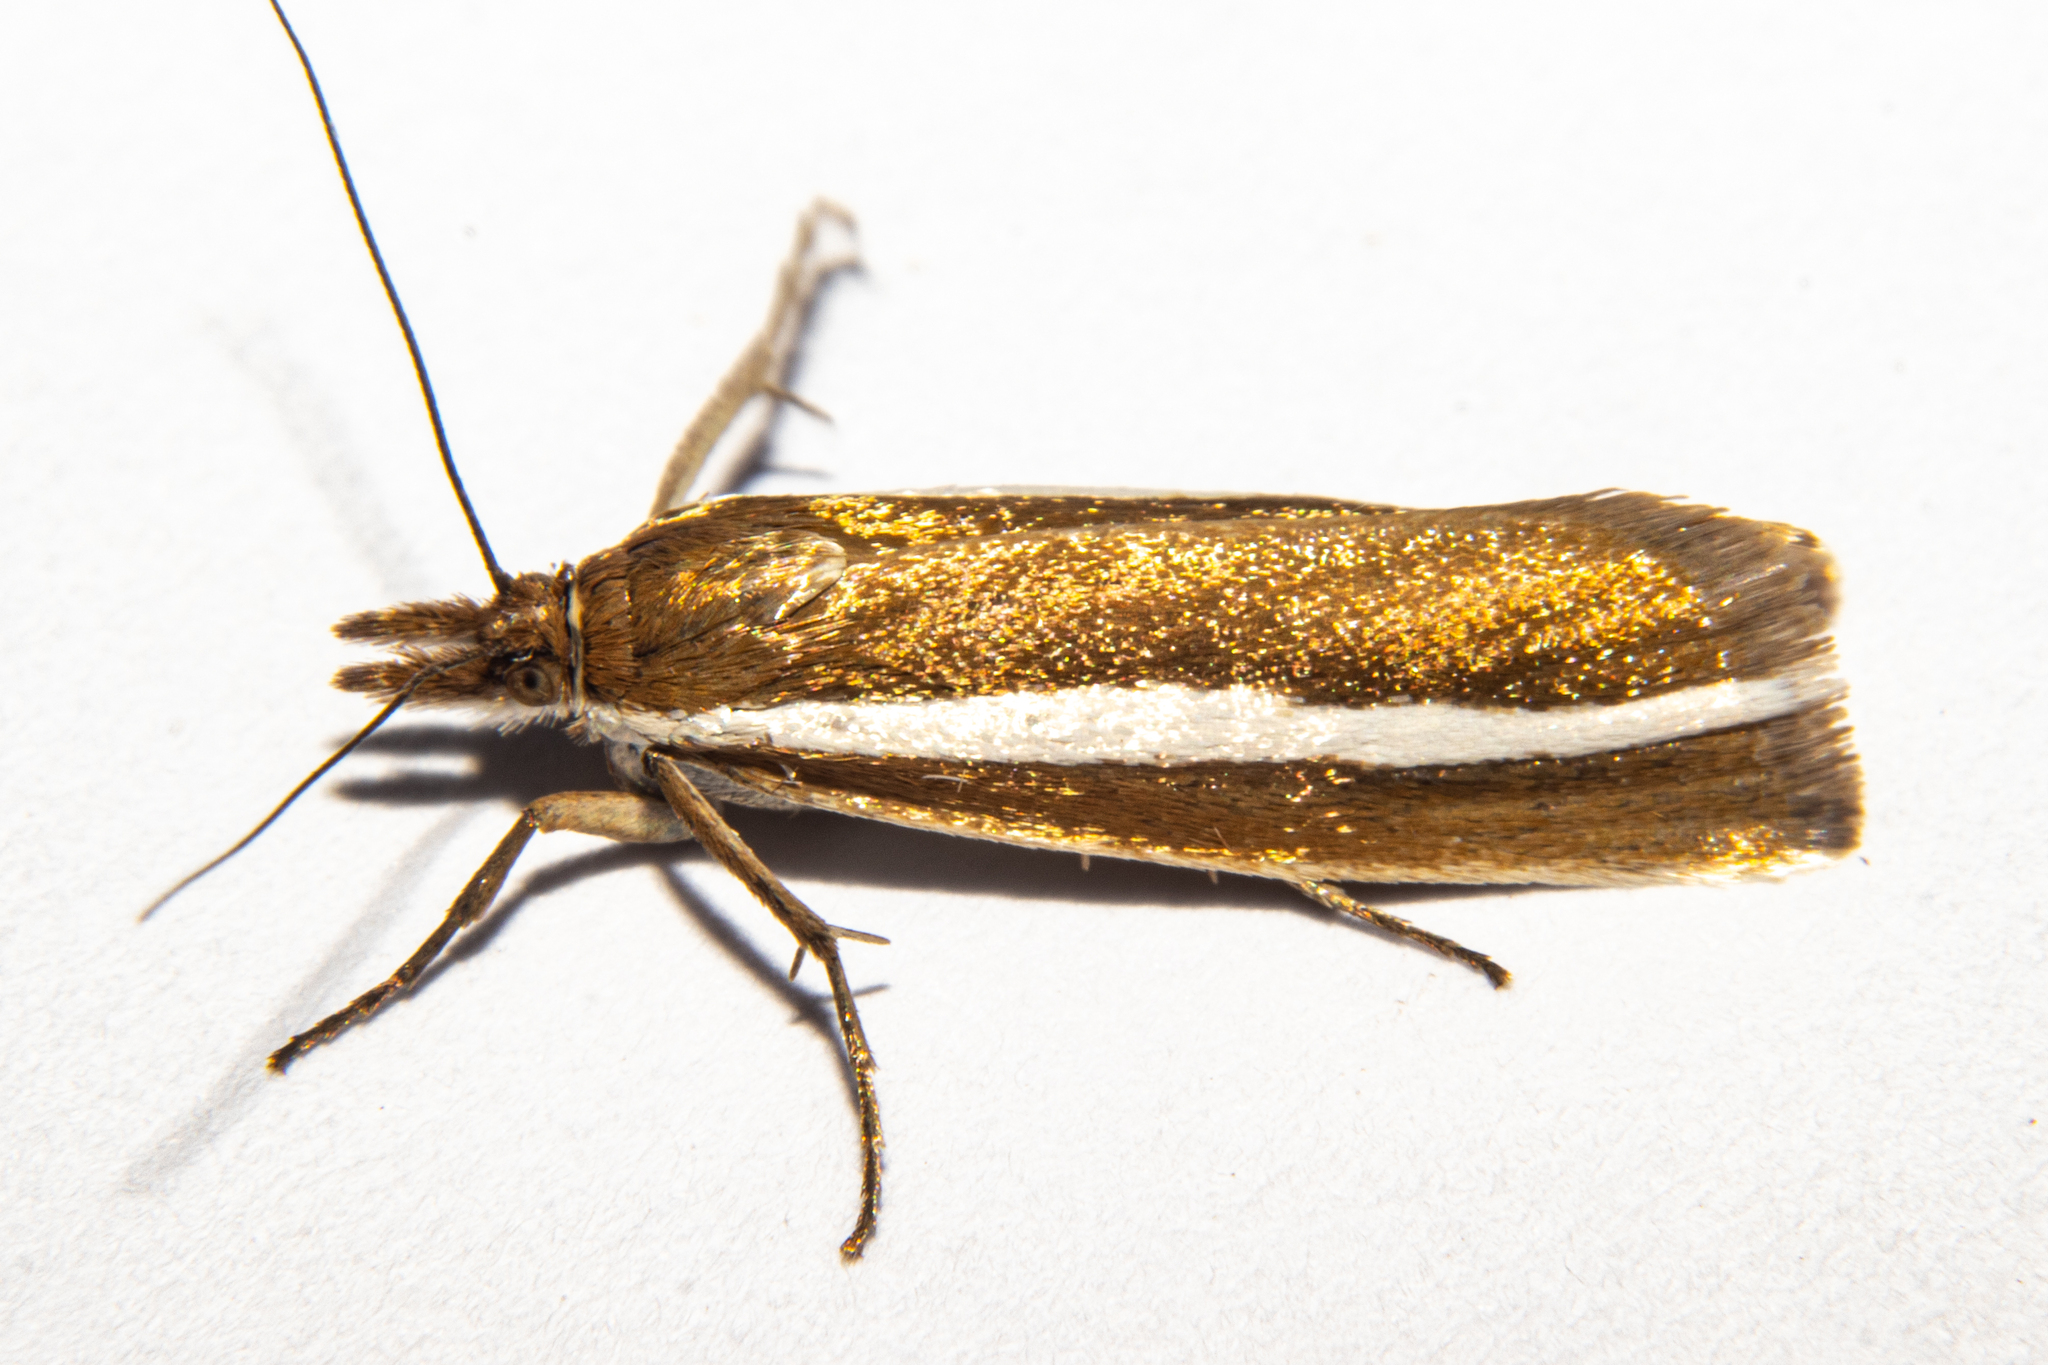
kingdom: Animalia
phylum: Arthropoda
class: Insecta
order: Lepidoptera
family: Crambidae
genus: Orocrambus
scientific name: Orocrambus aethonellus
